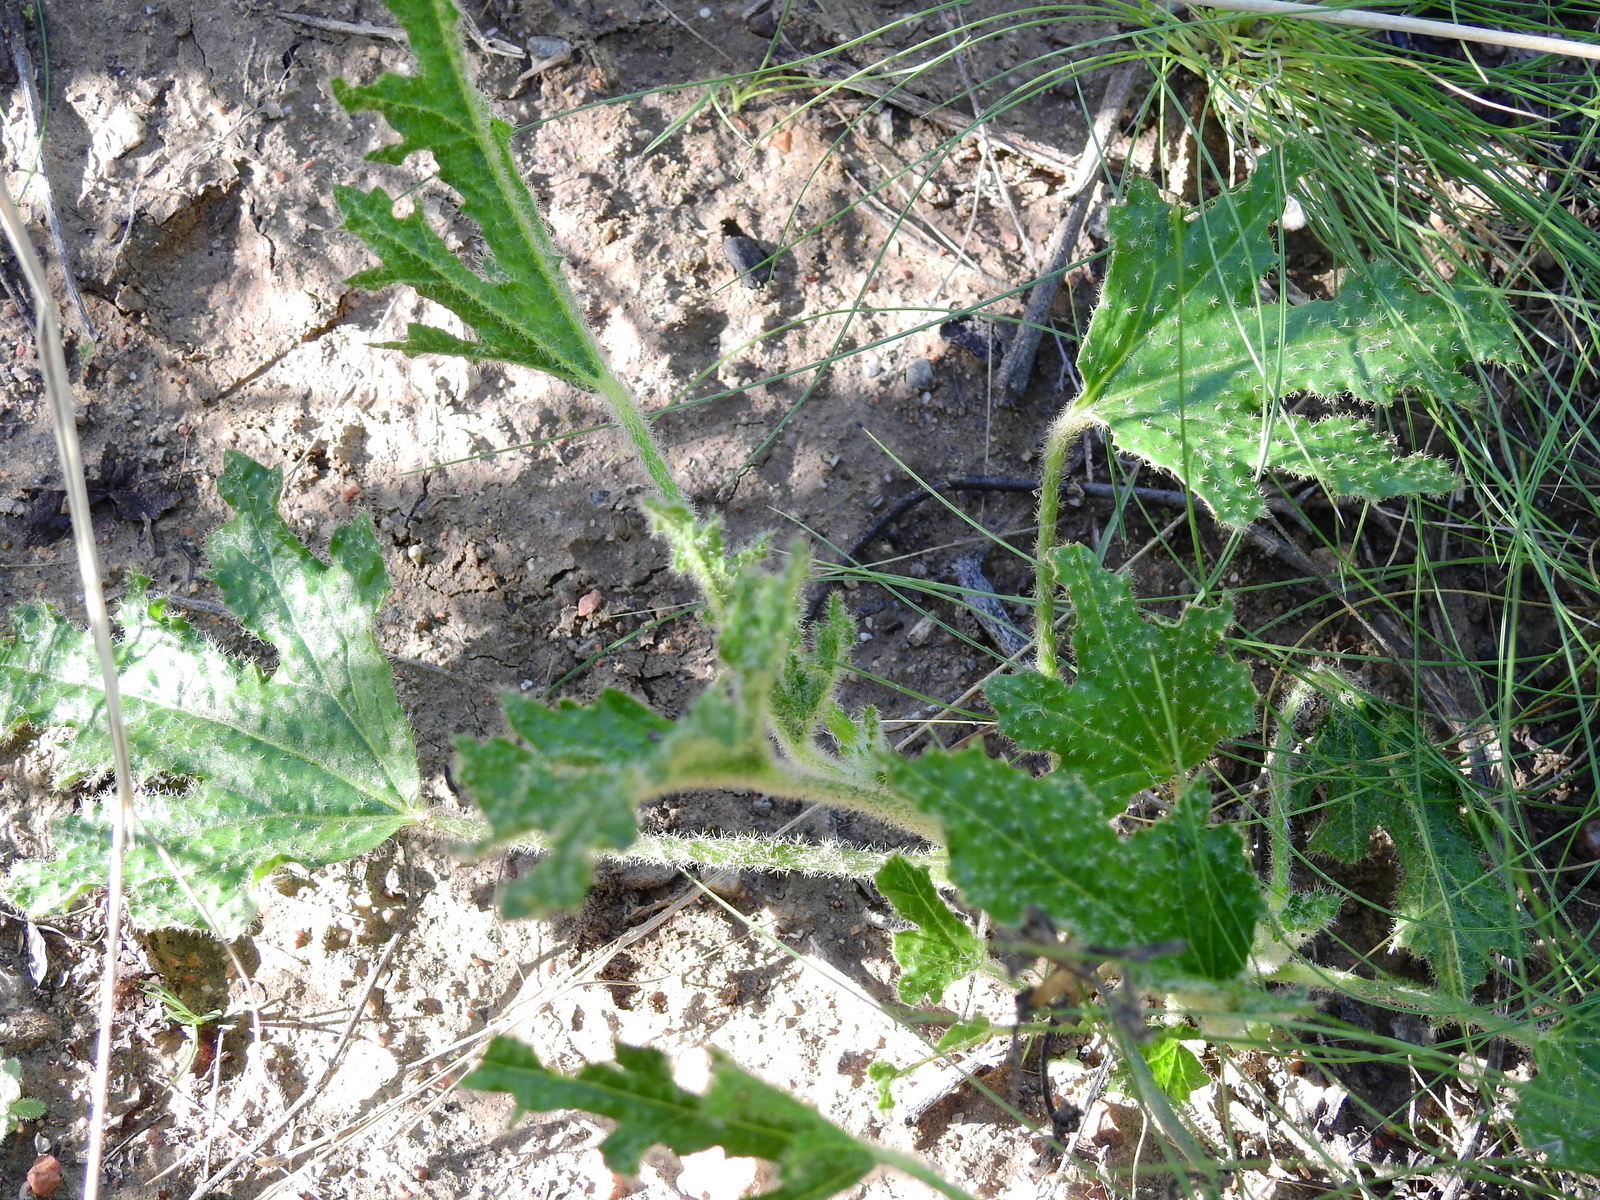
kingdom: Plantae
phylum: Tracheophyta
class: Magnoliopsida
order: Malvales
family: Malvaceae
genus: Lecanophora
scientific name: Lecanophora heterophylla
